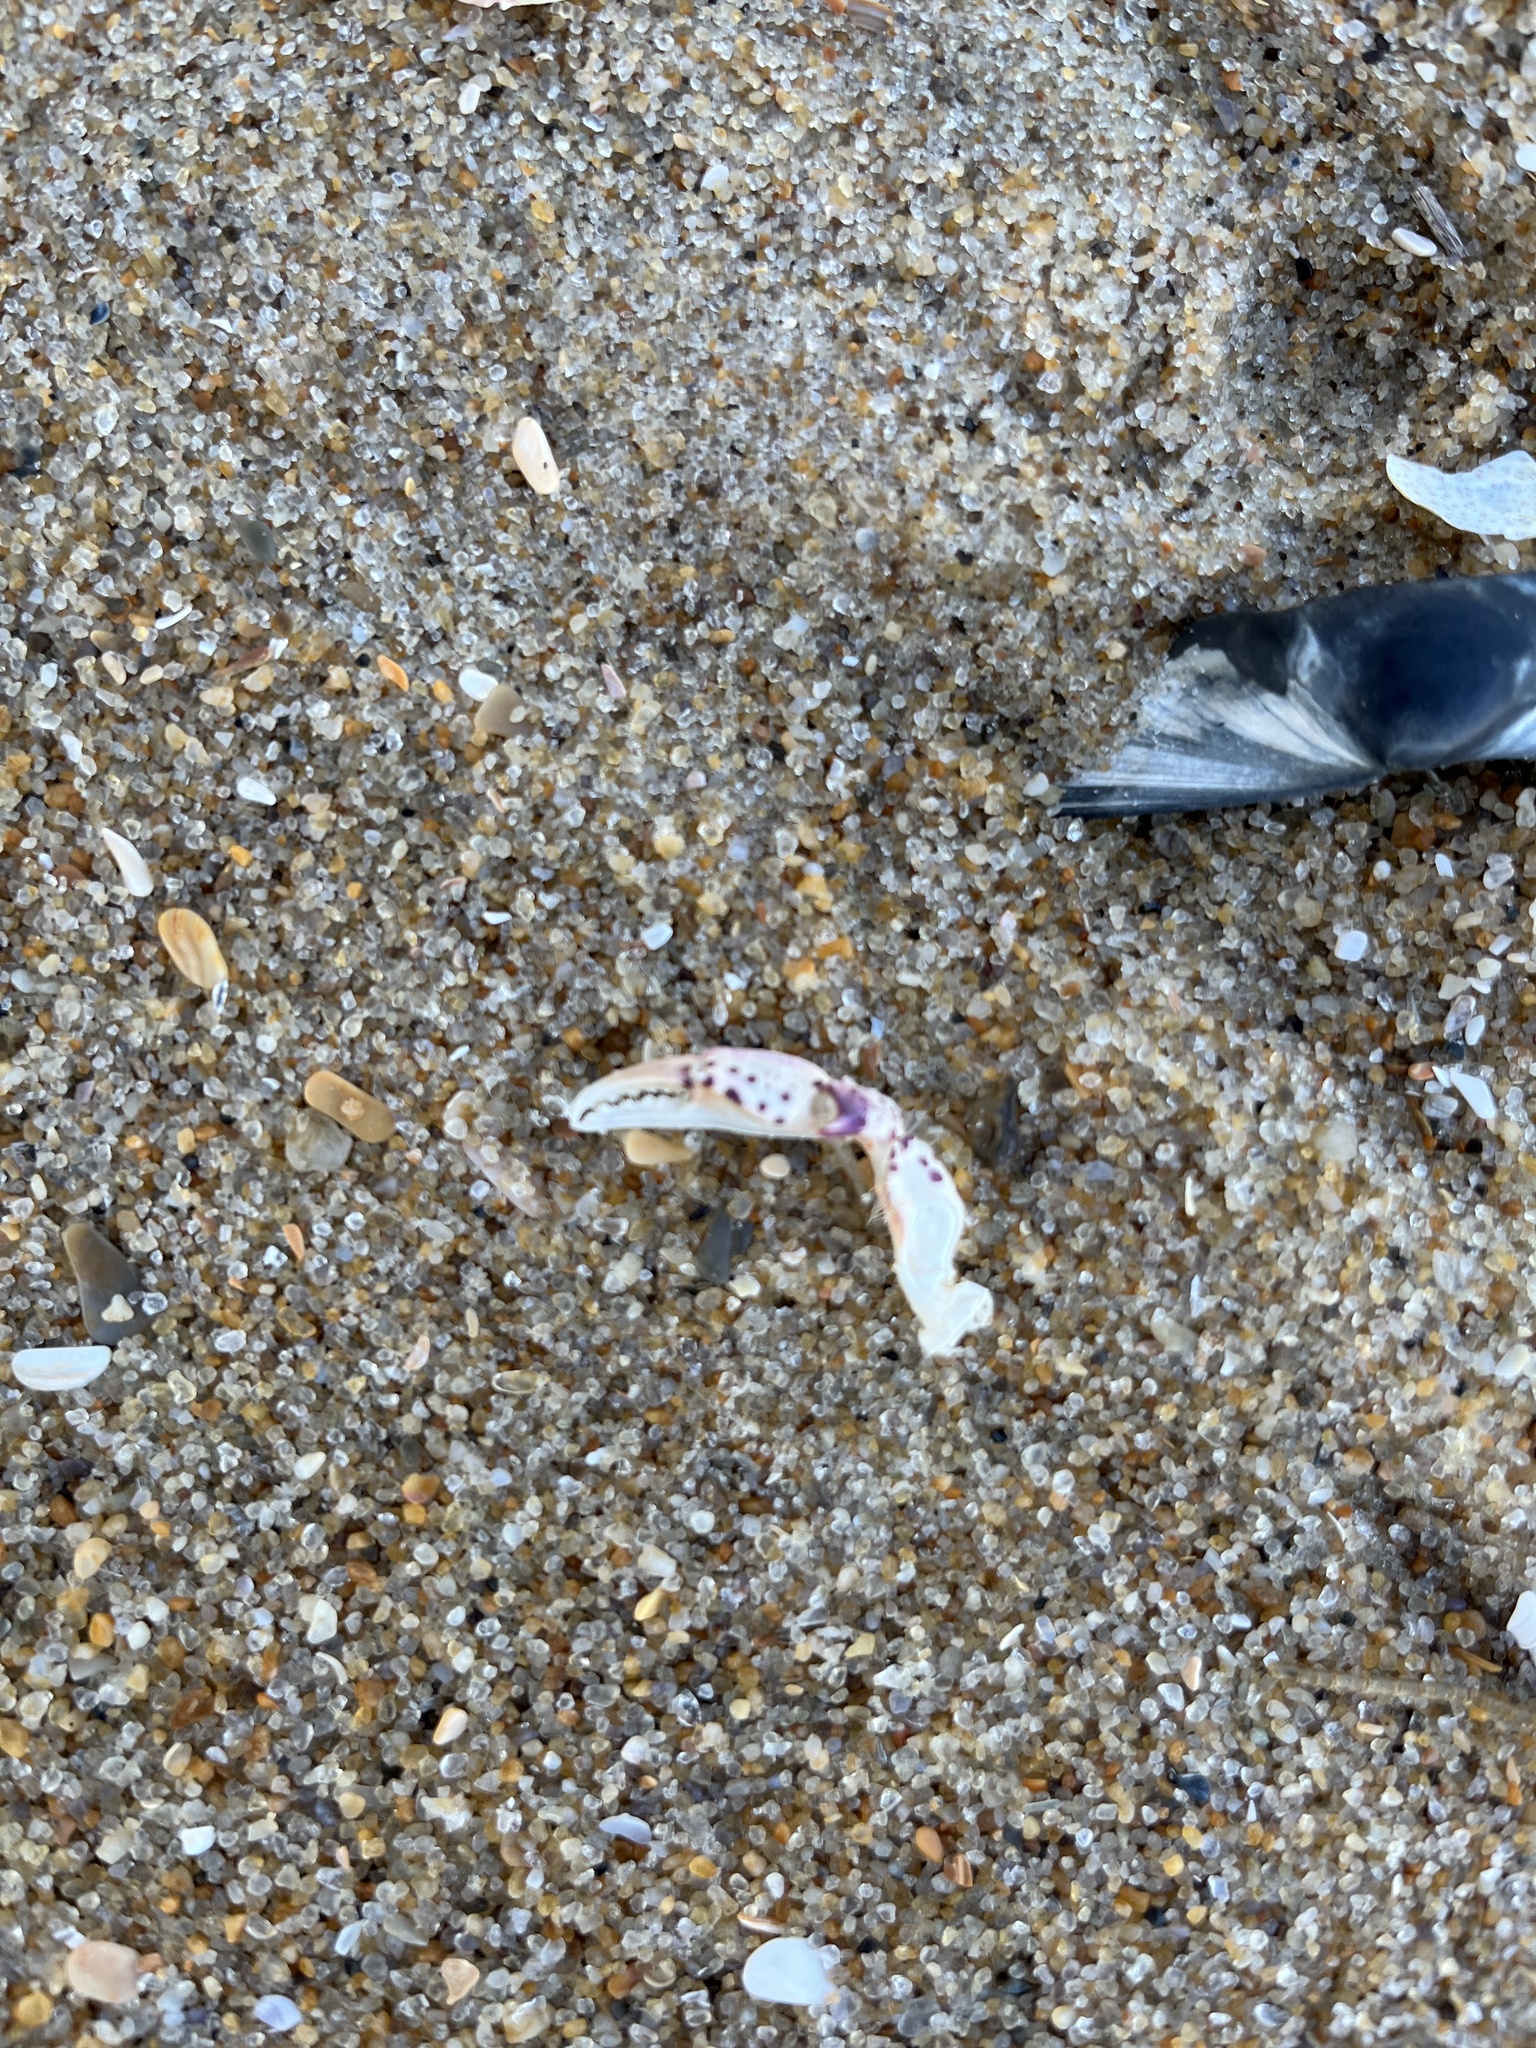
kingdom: Animalia
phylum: Arthropoda
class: Malacostraca
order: Decapoda
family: Ovalipidae
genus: Ovalipes
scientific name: Ovalipes ocellatus
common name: Lady crab
